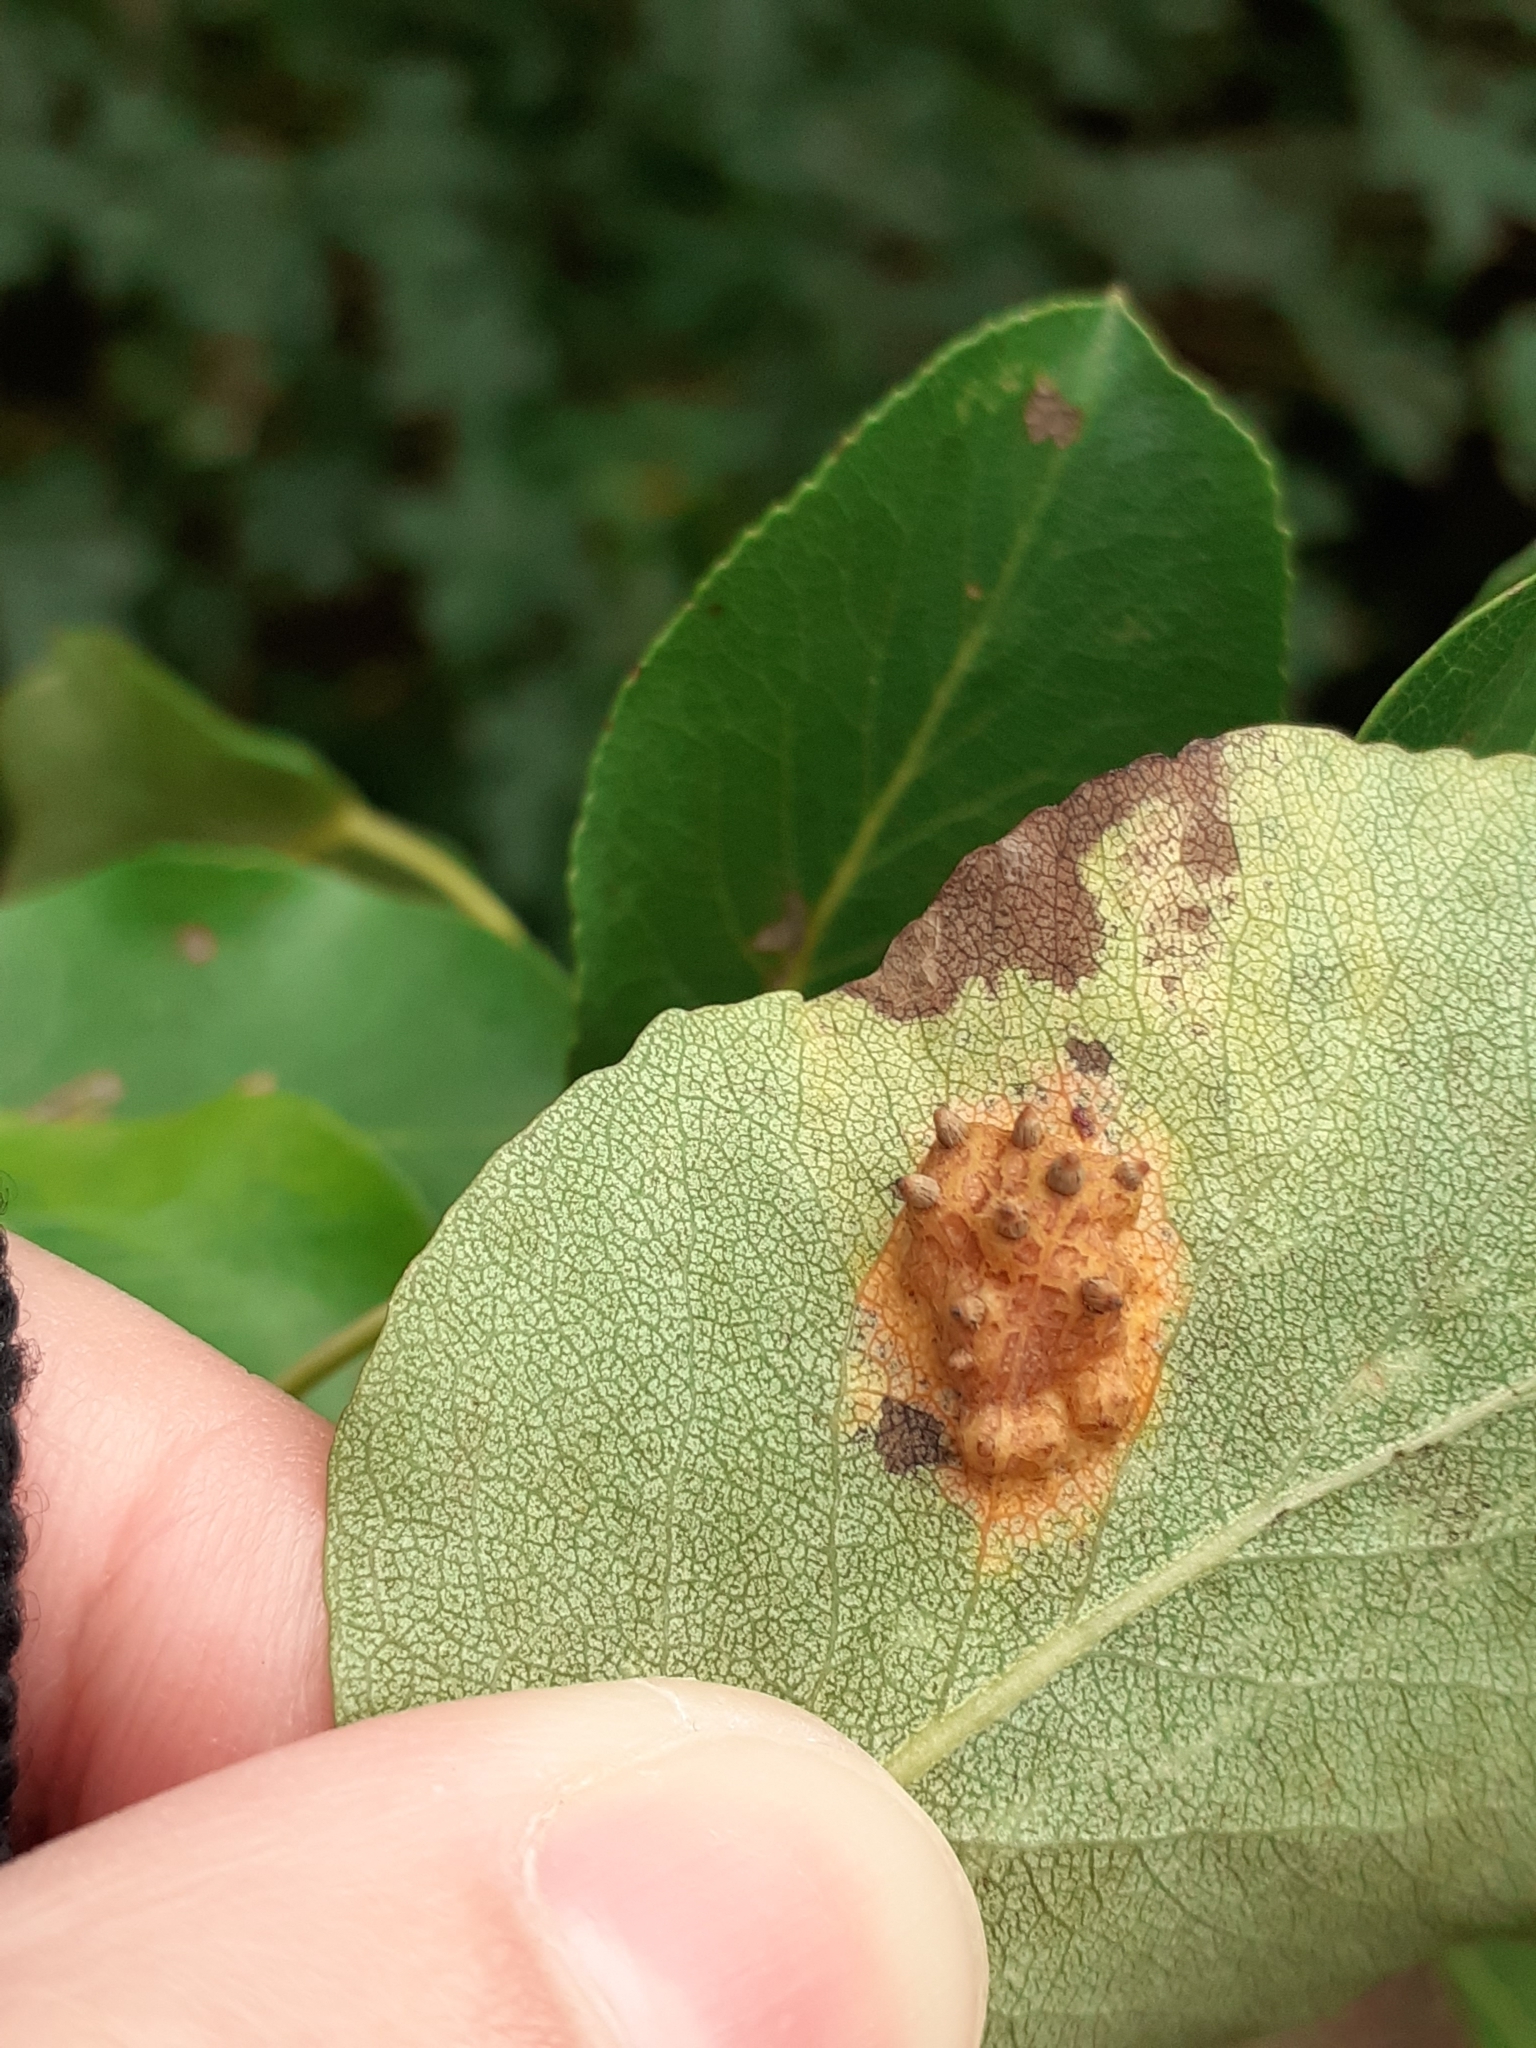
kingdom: Fungi
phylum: Basidiomycota
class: Pucciniomycetes
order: Pucciniales
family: Gymnosporangiaceae
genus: Gymnosporangium
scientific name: Gymnosporangium sabinae
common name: Pear trellis rust fungus
